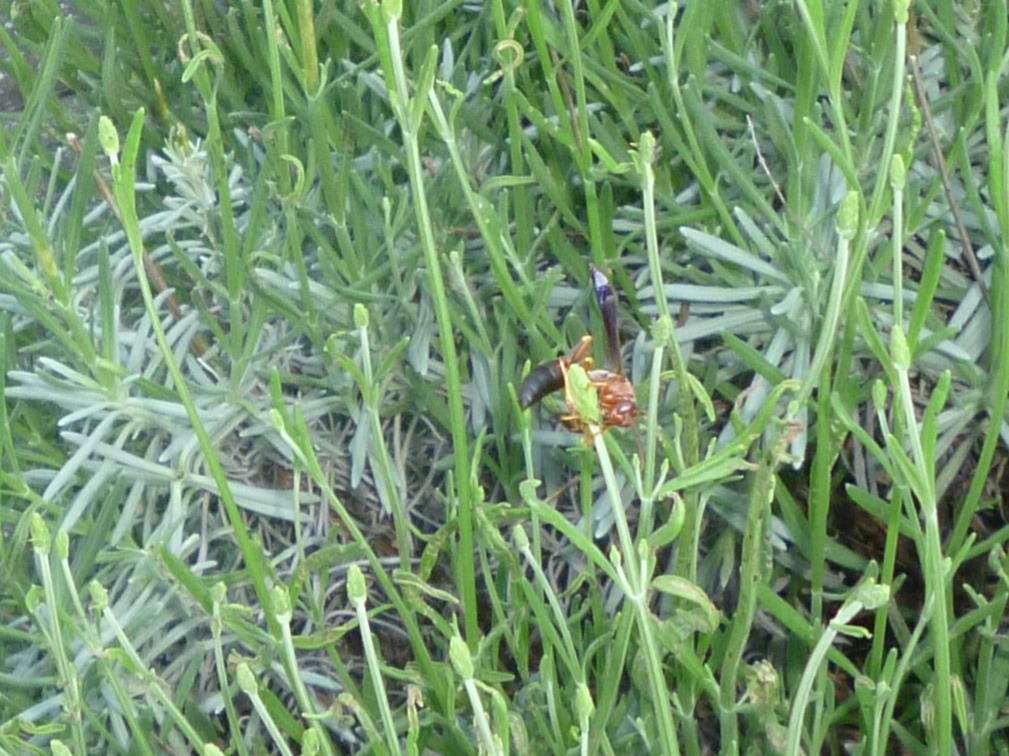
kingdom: Animalia
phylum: Arthropoda
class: Insecta
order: Hymenoptera
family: Eumenidae
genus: Polistes
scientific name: Polistes metricus
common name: Metric paper wasp
